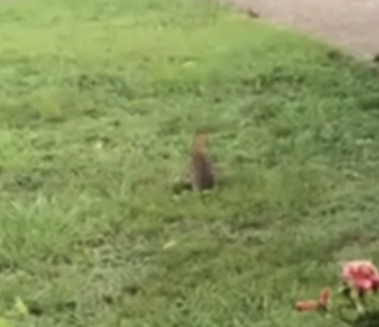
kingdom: Animalia
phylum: Chordata
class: Mammalia
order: Lagomorpha
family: Leporidae
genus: Sylvilagus
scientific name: Sylvilagus floridanus
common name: Eastern cottontail
